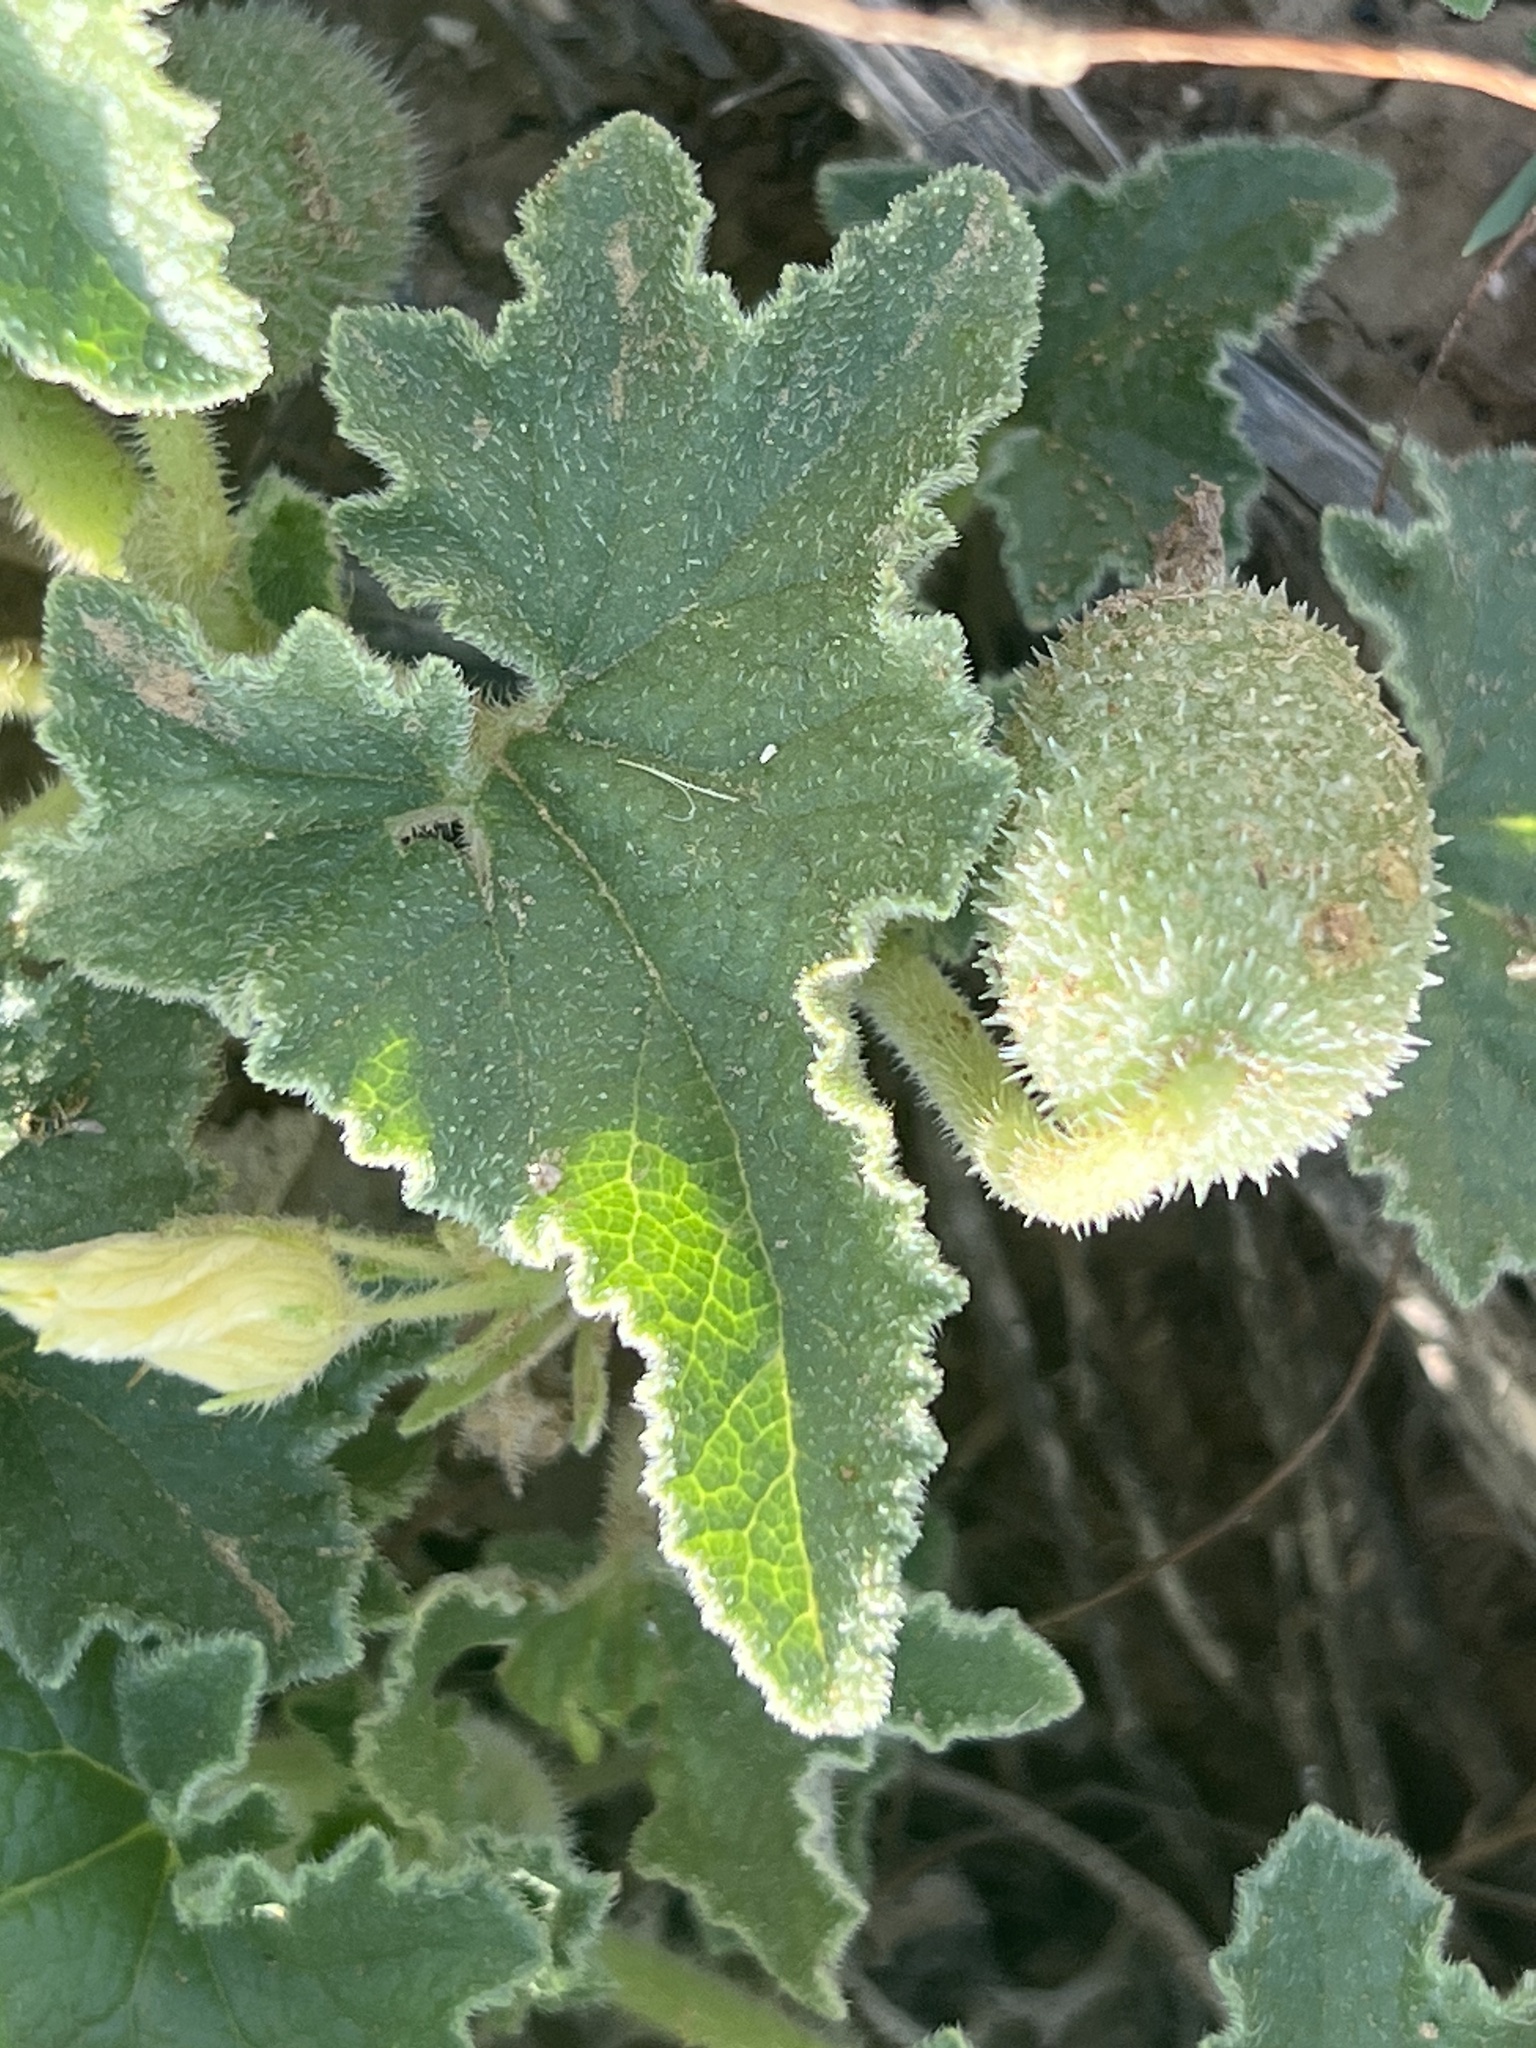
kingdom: Plantae
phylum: Tracheophyta
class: Magnoliopsida
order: Cucurbitales
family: Cucurbitaceae
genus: Ecballium
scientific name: Ecballium elaterium
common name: Squirting cucumber
